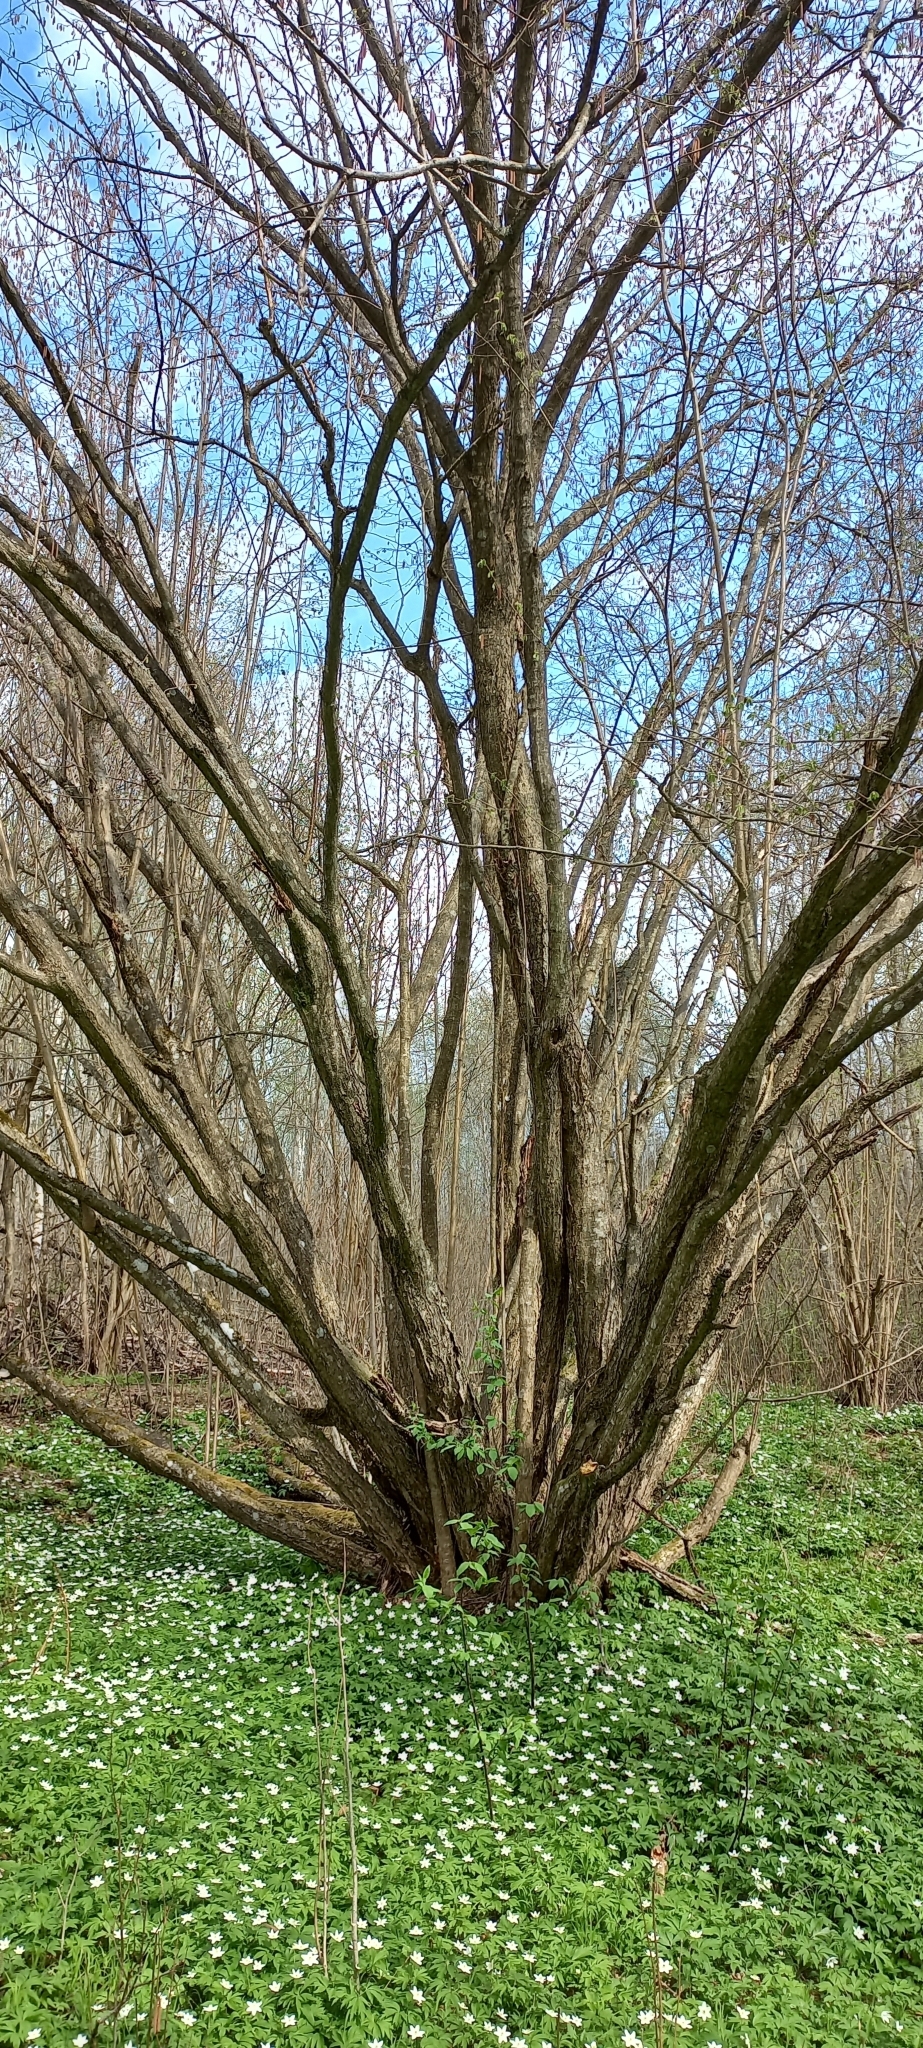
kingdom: Plantae
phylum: Tracheophyta
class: Magnoliopsida
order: Fagales
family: Betulaceae
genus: Corylus
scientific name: Corylus avellana
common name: European hazel
